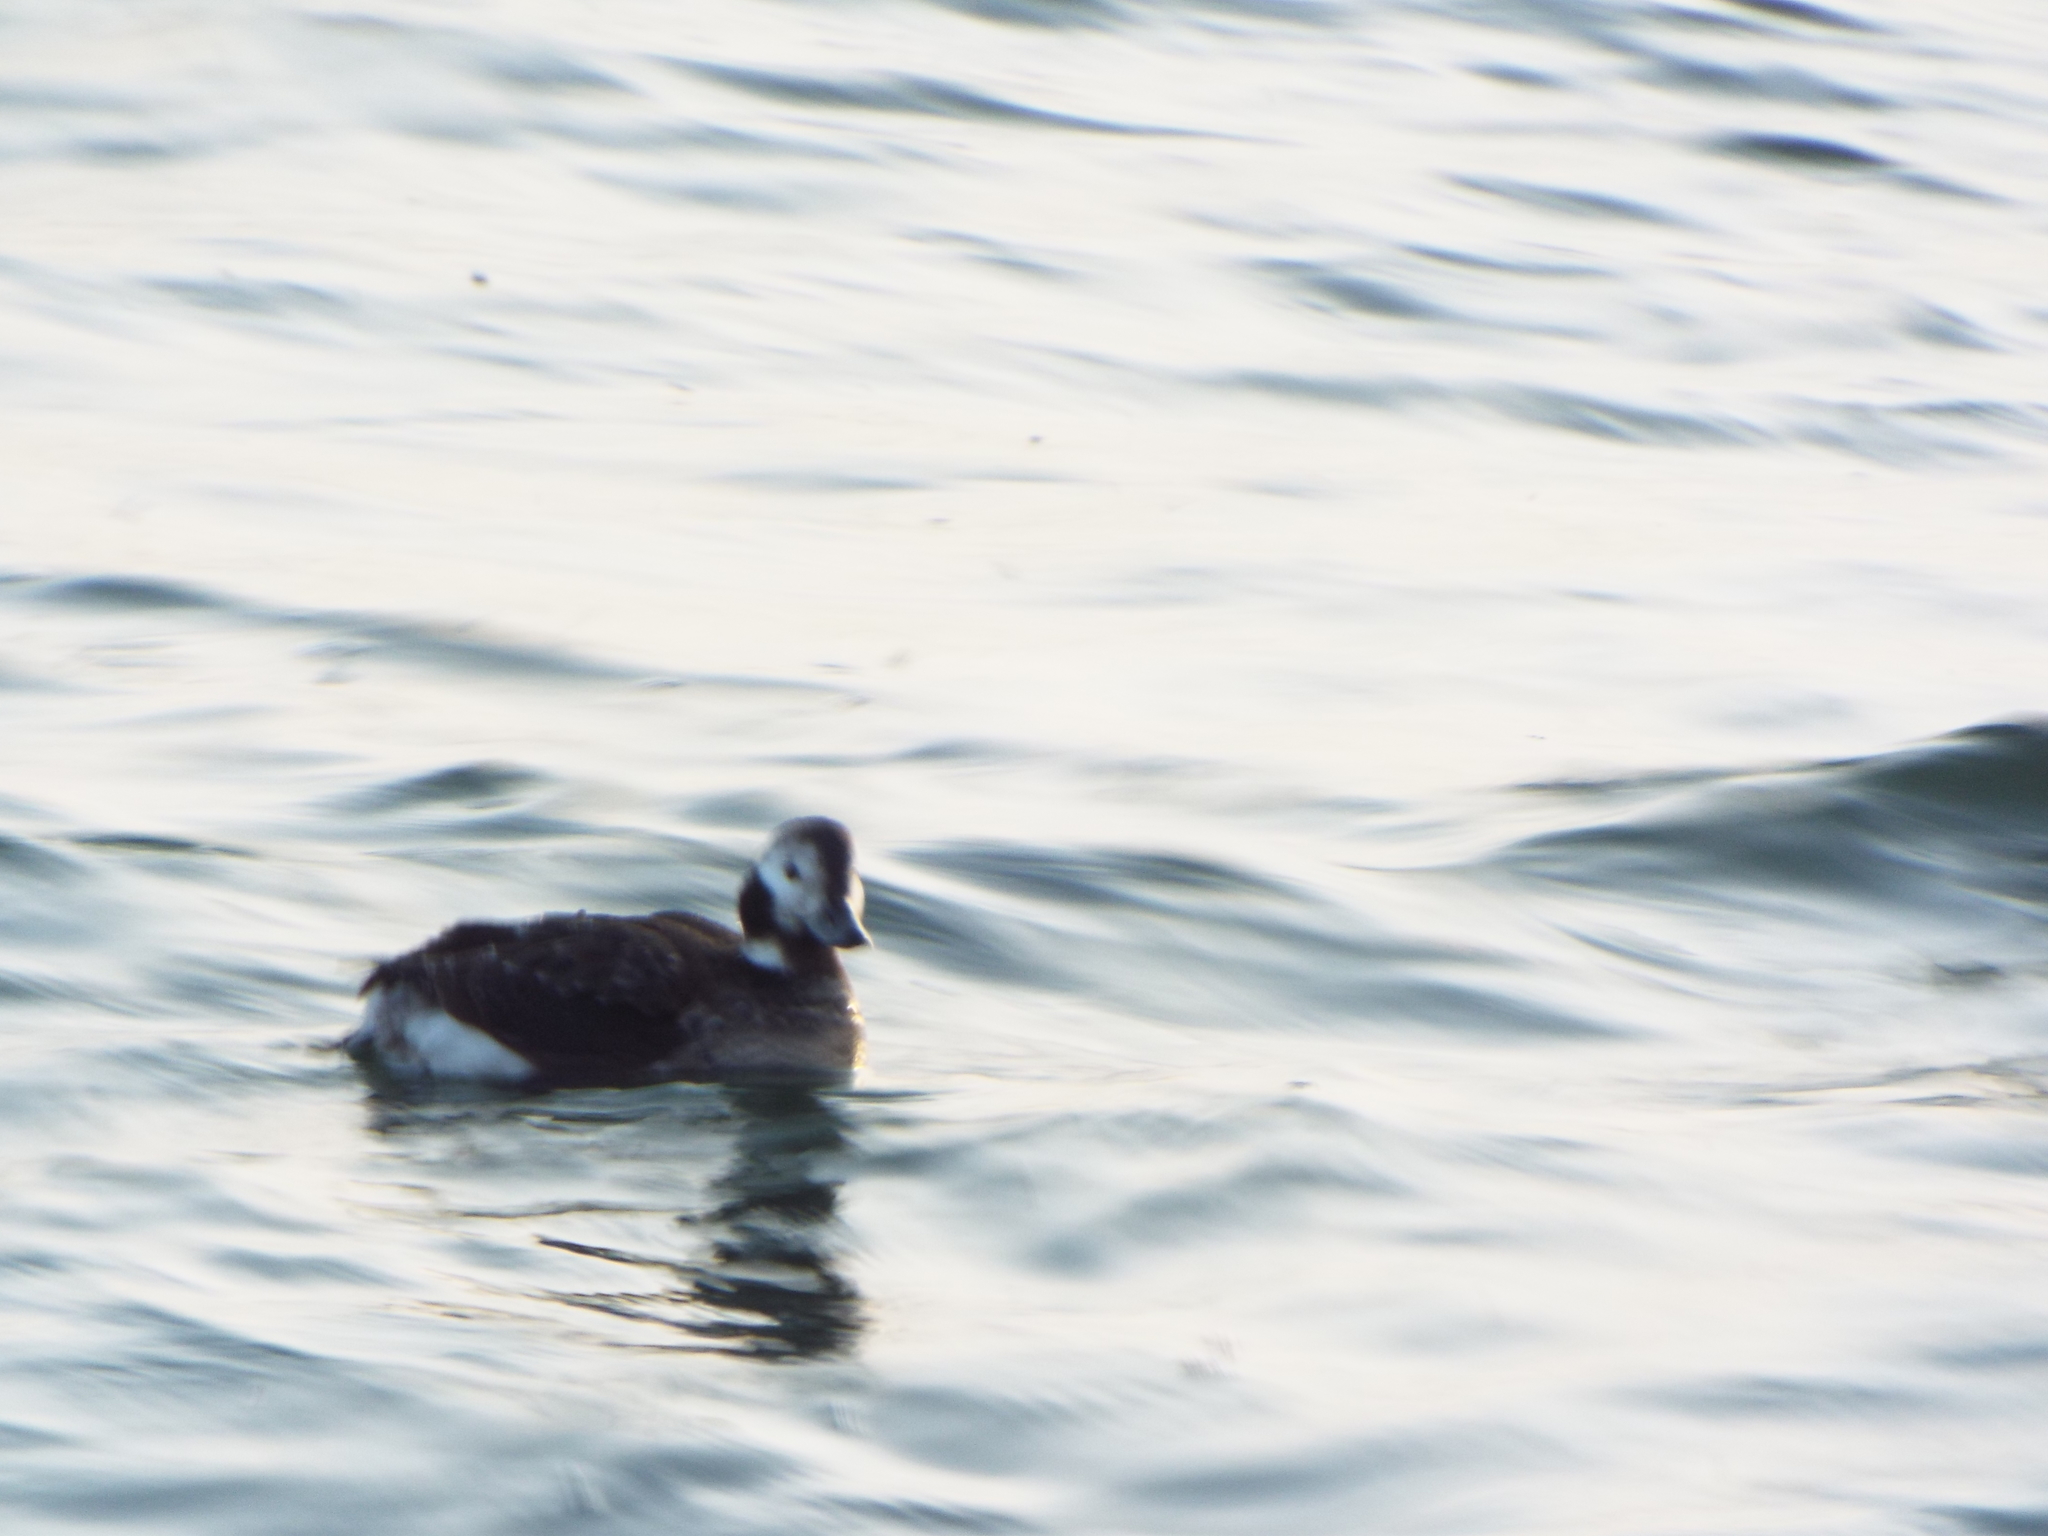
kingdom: Animalia
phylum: Chordata
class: Aves
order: Anseriformes
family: Anatidae
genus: Clangula
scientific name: Clangula hyemalis
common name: Long-tailed duck
